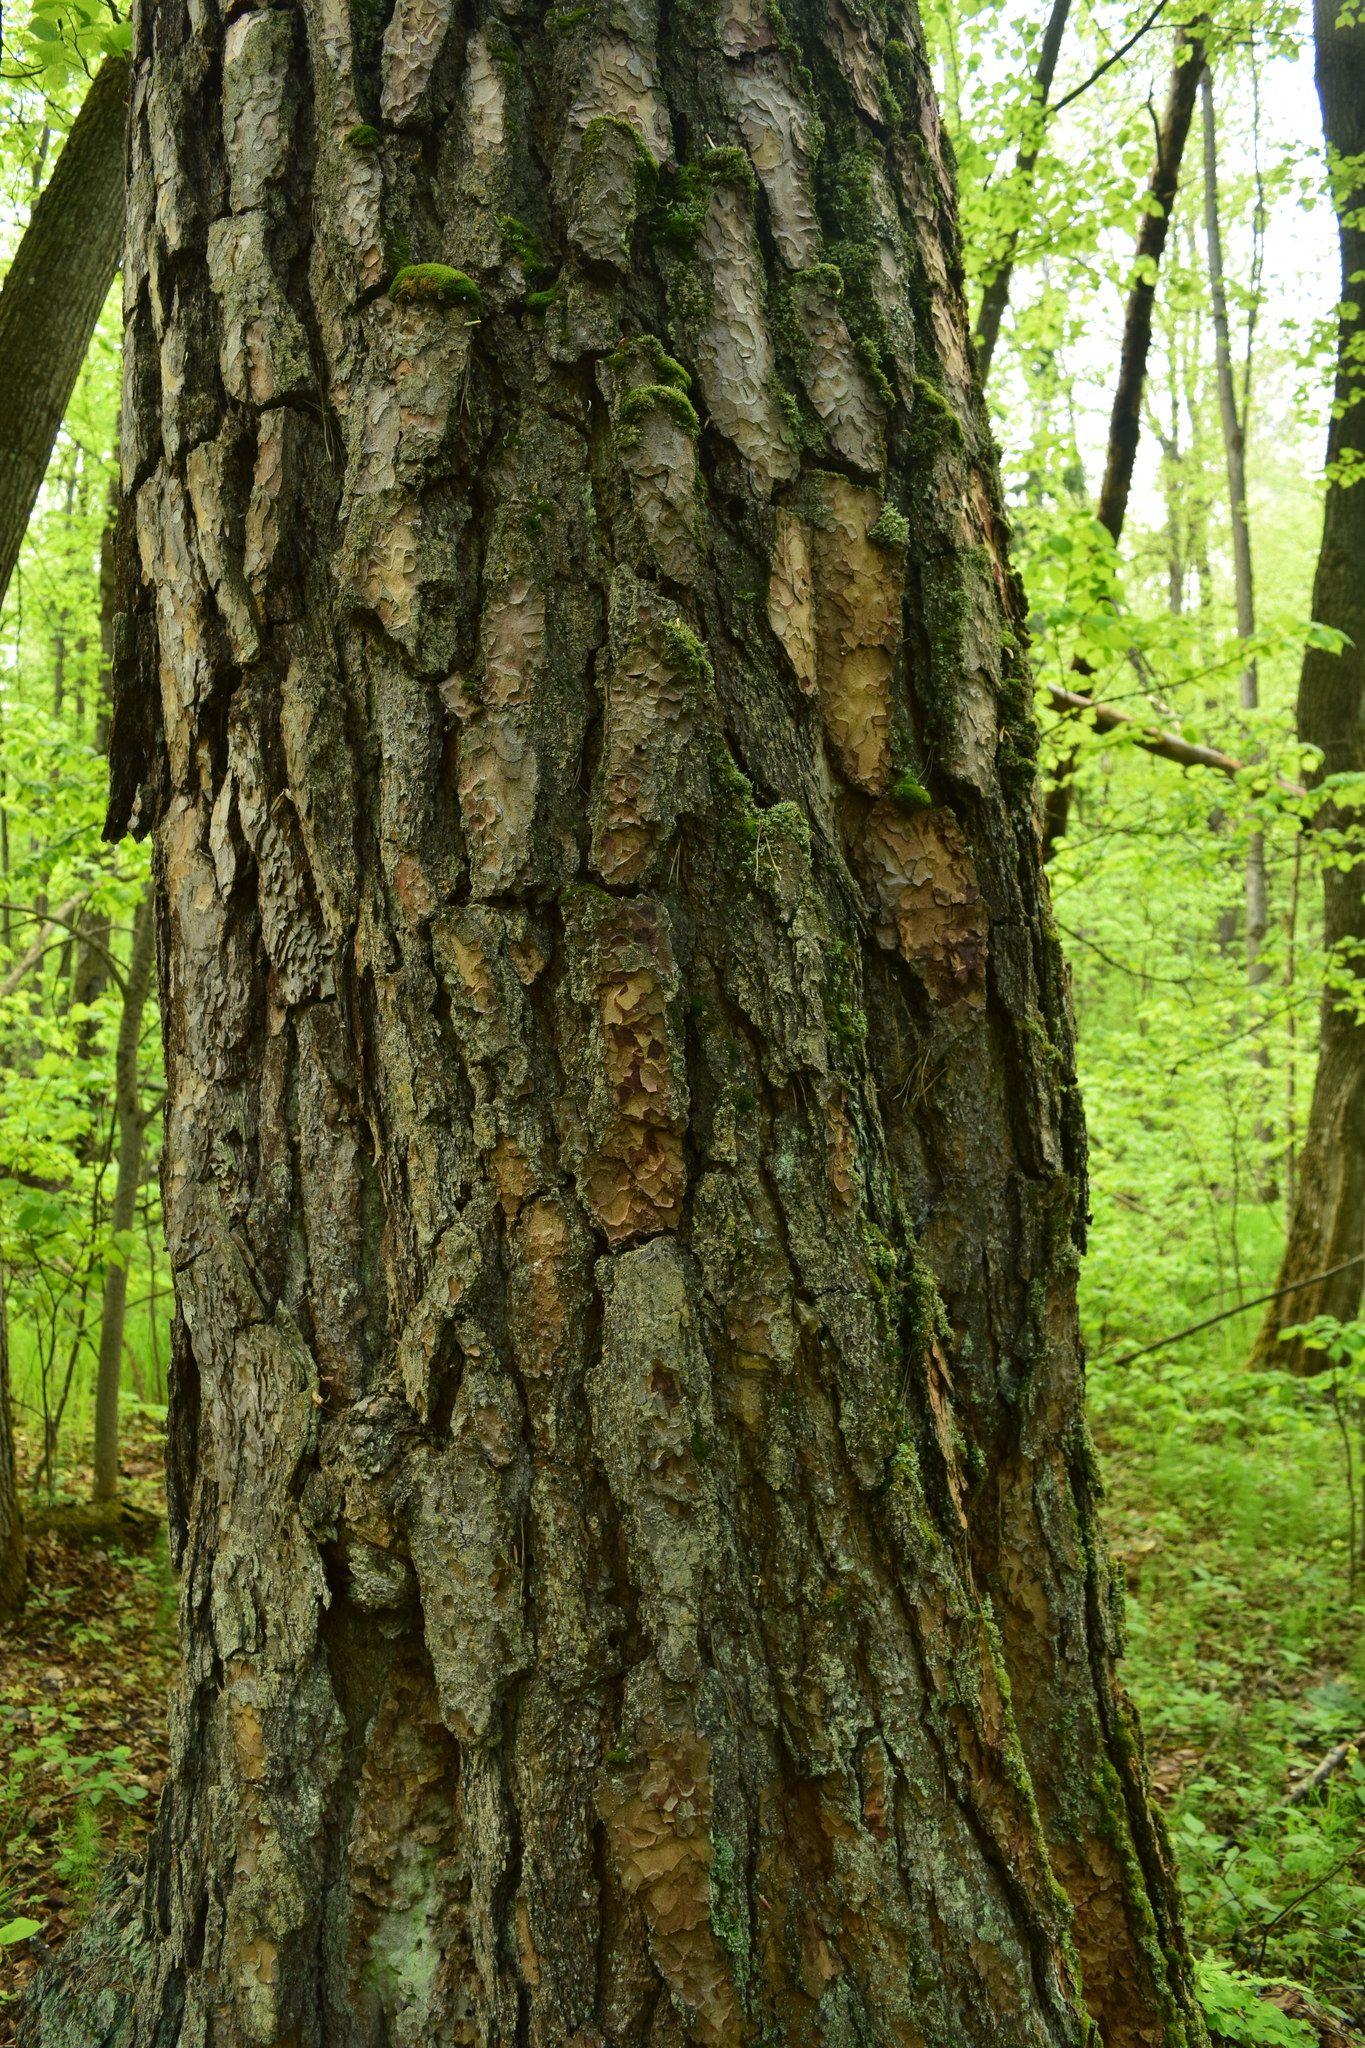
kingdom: Plantae
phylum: Tracheophyta
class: Pinopsida
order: Pinales
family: Pinaceae
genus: Pinus
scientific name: Pinus sylvestris
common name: Scots pine
